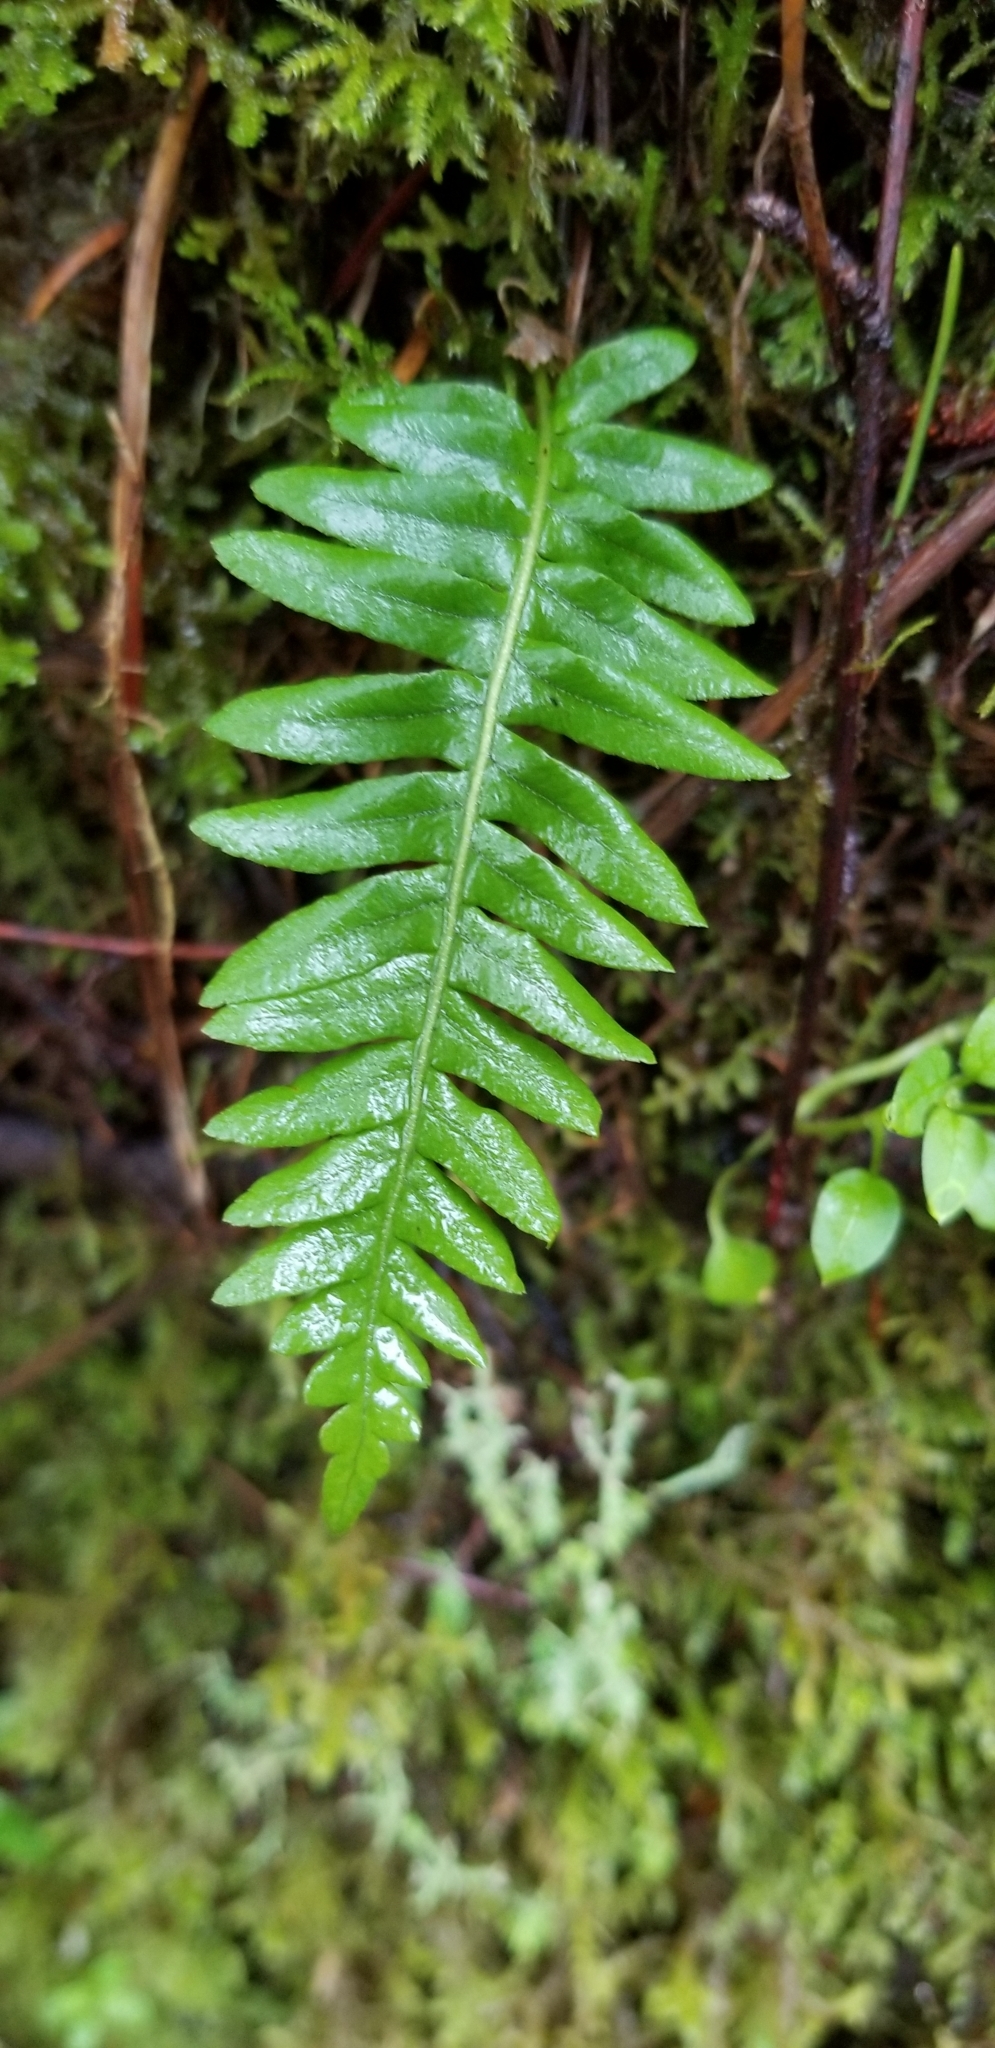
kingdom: Plantae
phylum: Tracheophyta
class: Polypodiopsida
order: Polypodiales
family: Polypodiaceae
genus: Polypodium
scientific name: Polypodium glycyrrhiza
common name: Licorice fern
